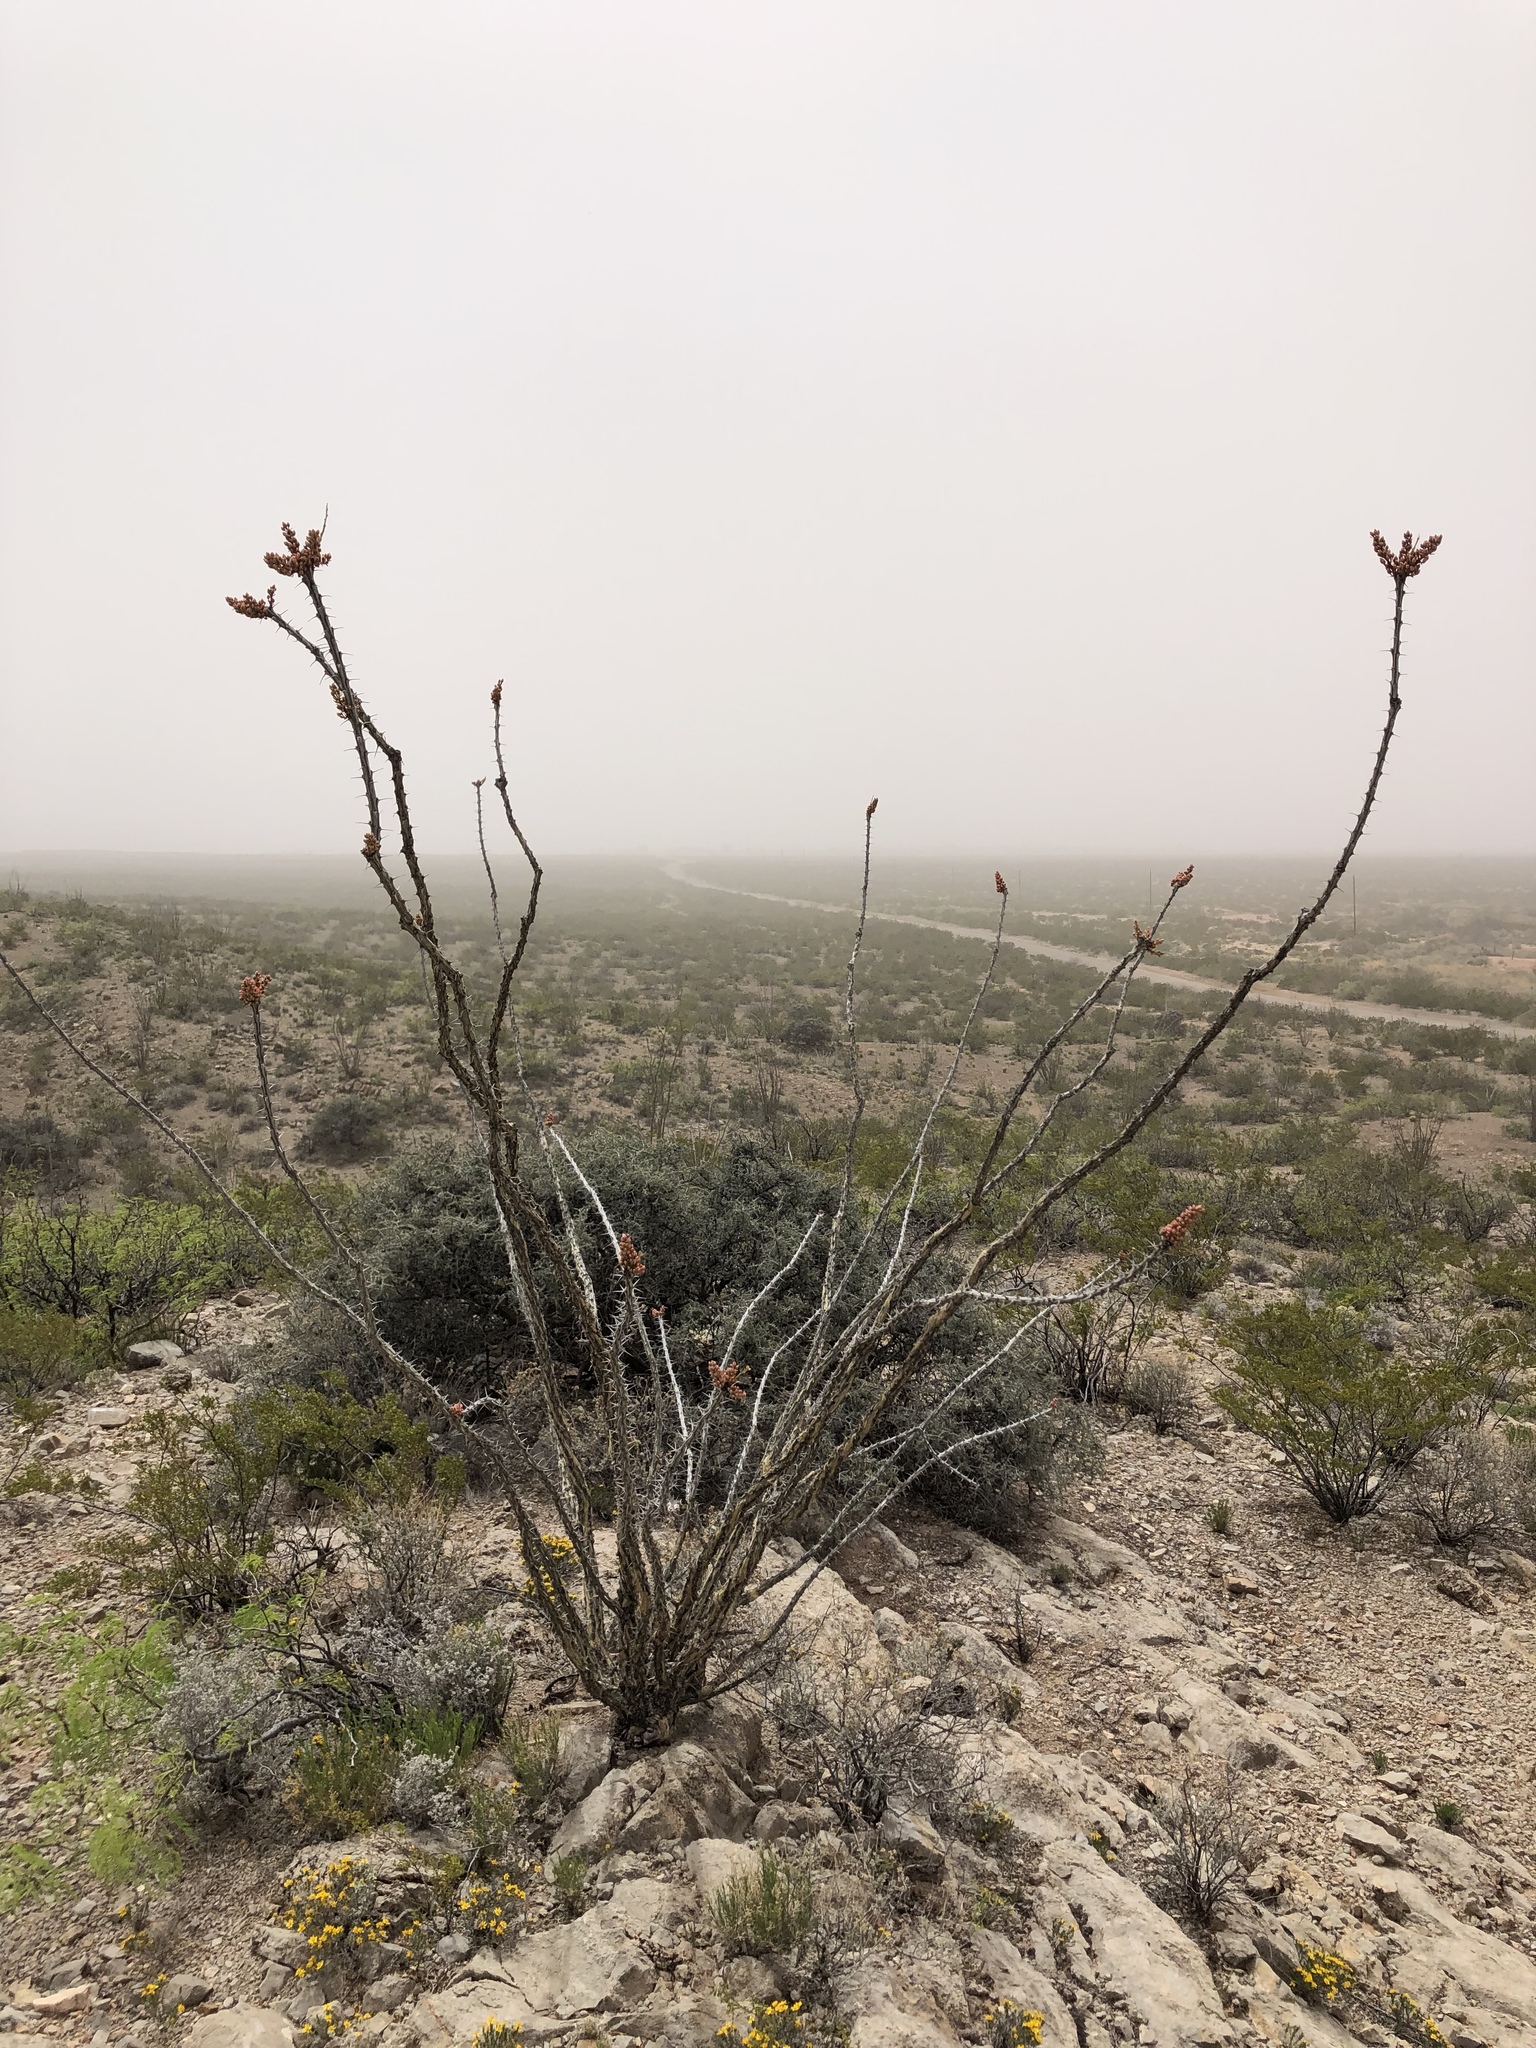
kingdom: Plantae
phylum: Tracheophyta
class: Magnoliopsida
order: Ericales
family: Fouquieriaceae
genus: Fouquieria
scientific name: Fouquieria splendens
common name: Vine-cactus
